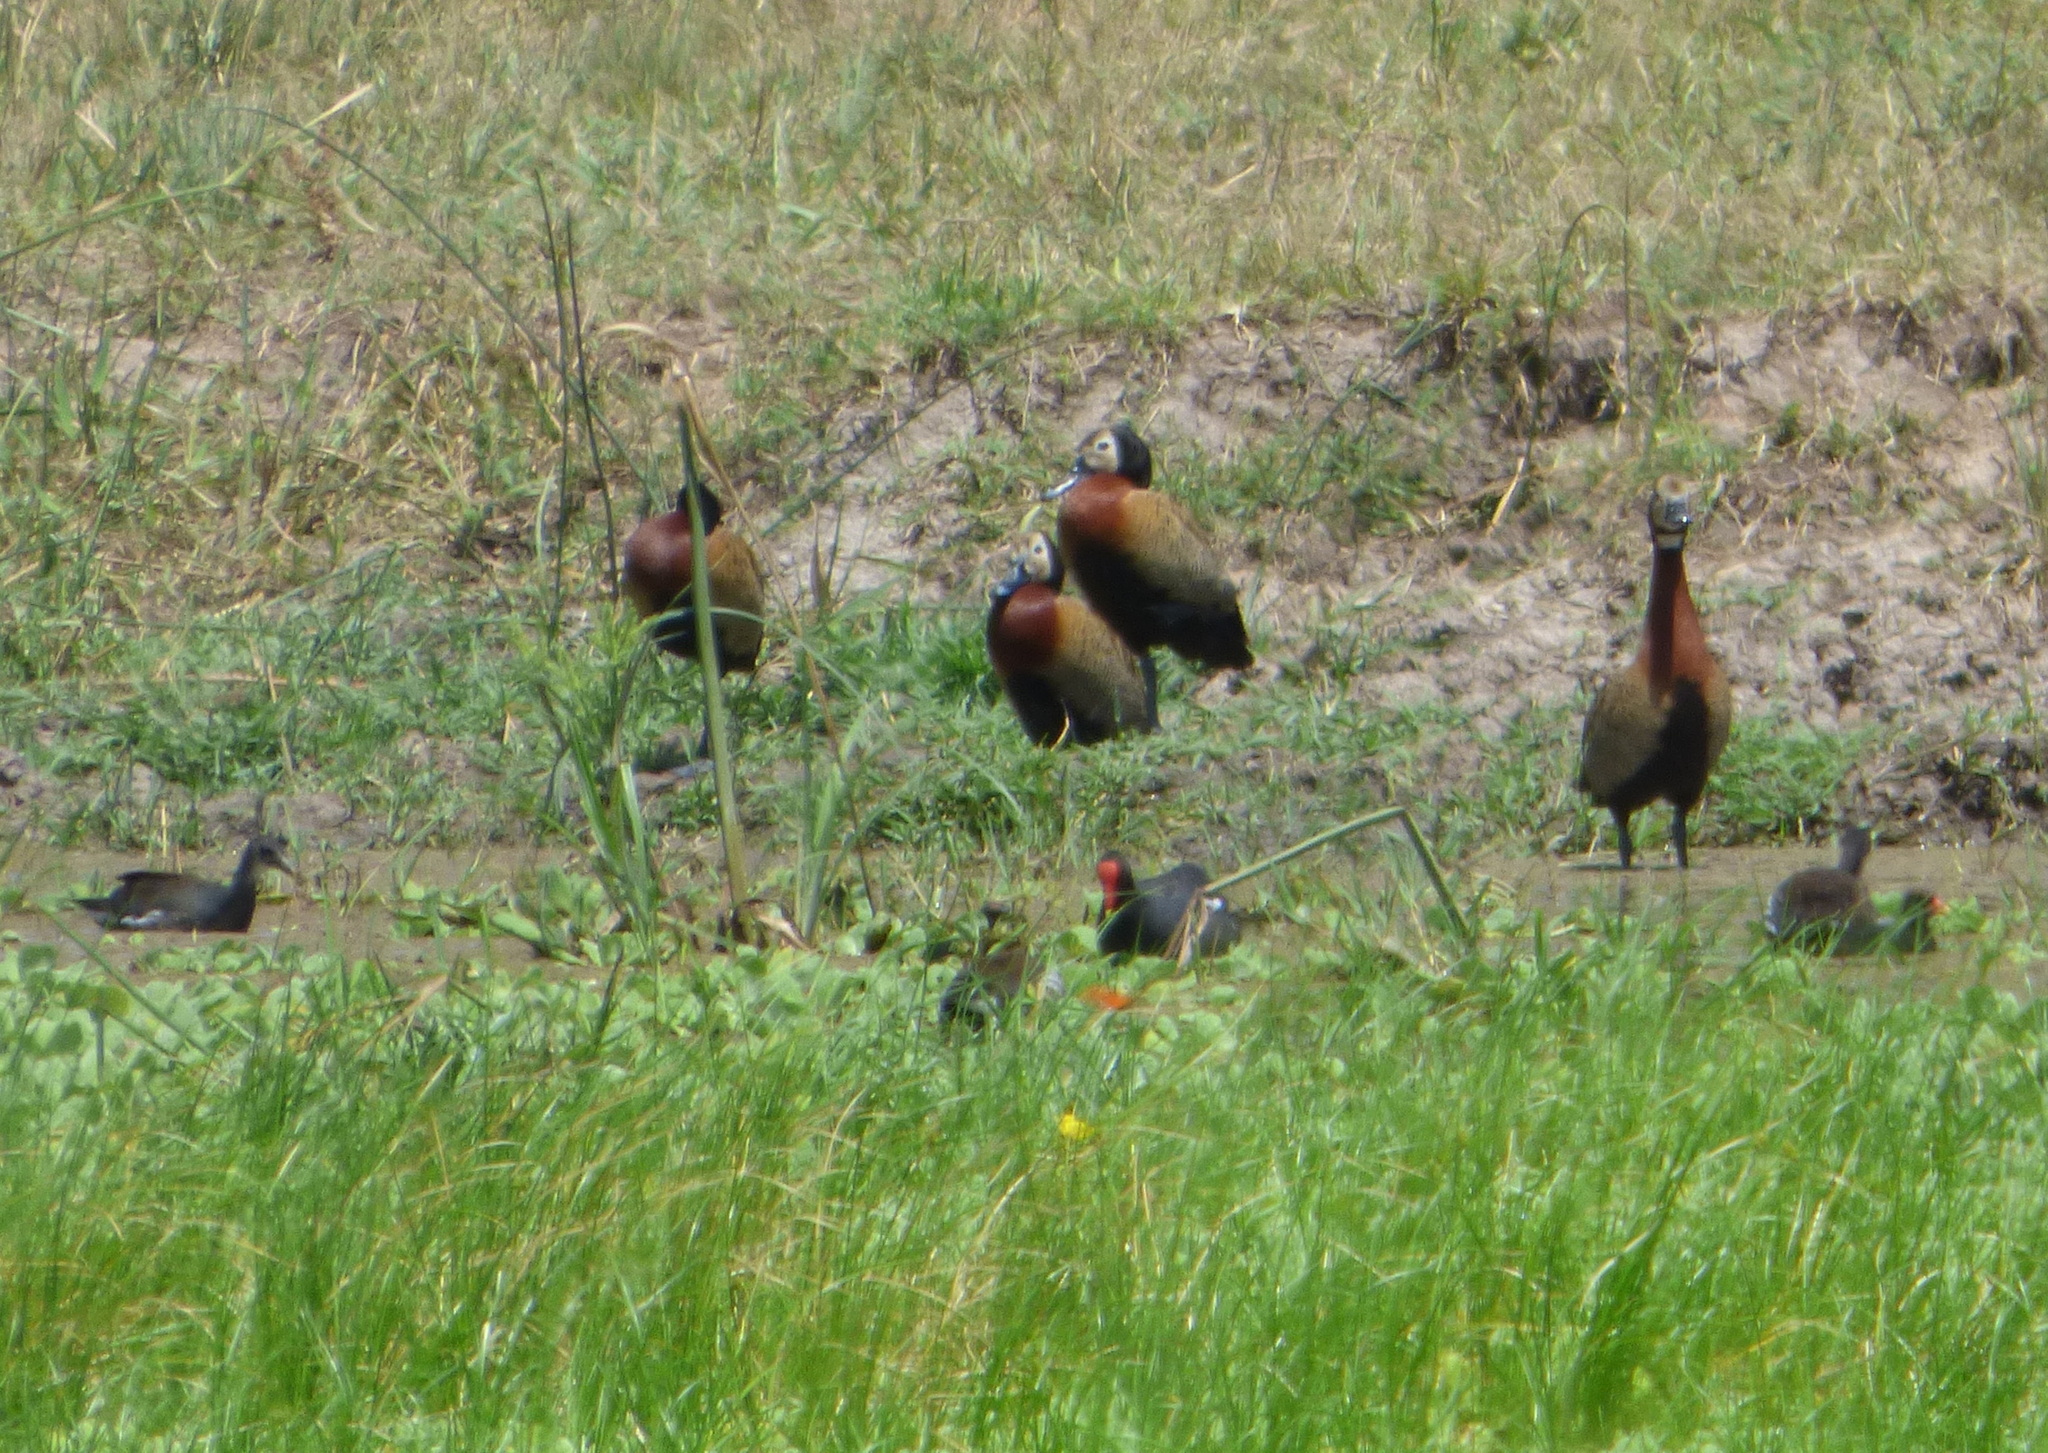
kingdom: Animalia
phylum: Chordata
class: Aves
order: Gruiformes
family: Rallidae
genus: Gallinula
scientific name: Gallinula chloropus
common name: Common moorhen
